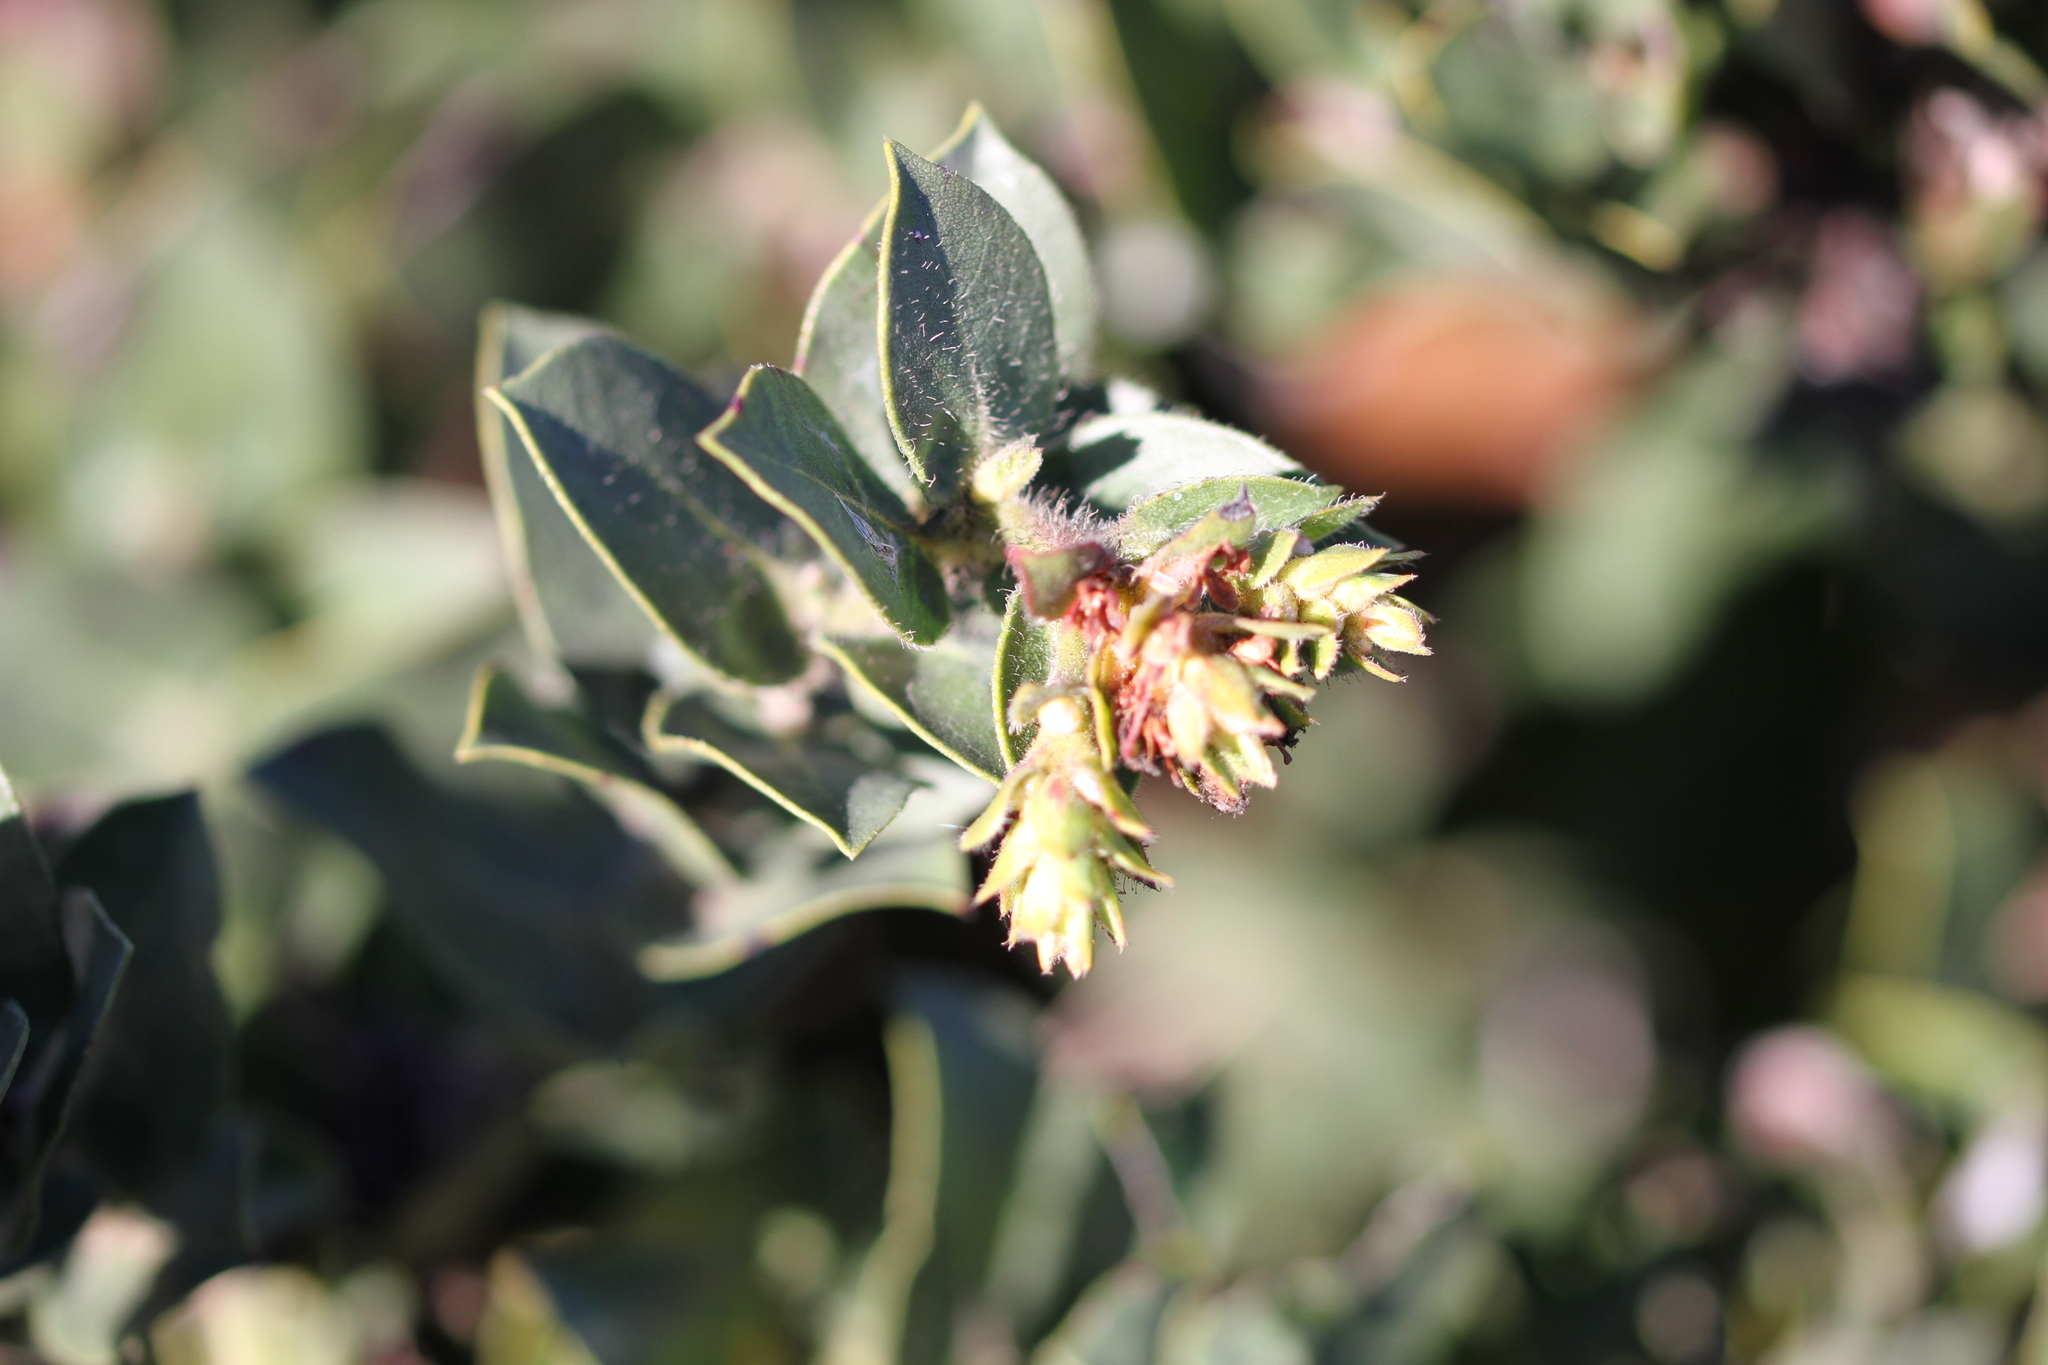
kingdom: Plantae
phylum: Tracheophyta
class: Magnoliopsida
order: Ericales
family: Ericaceae
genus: Arctostaphylos
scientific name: Arctostaphylos imbricata
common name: San bruno mountain manzanita
